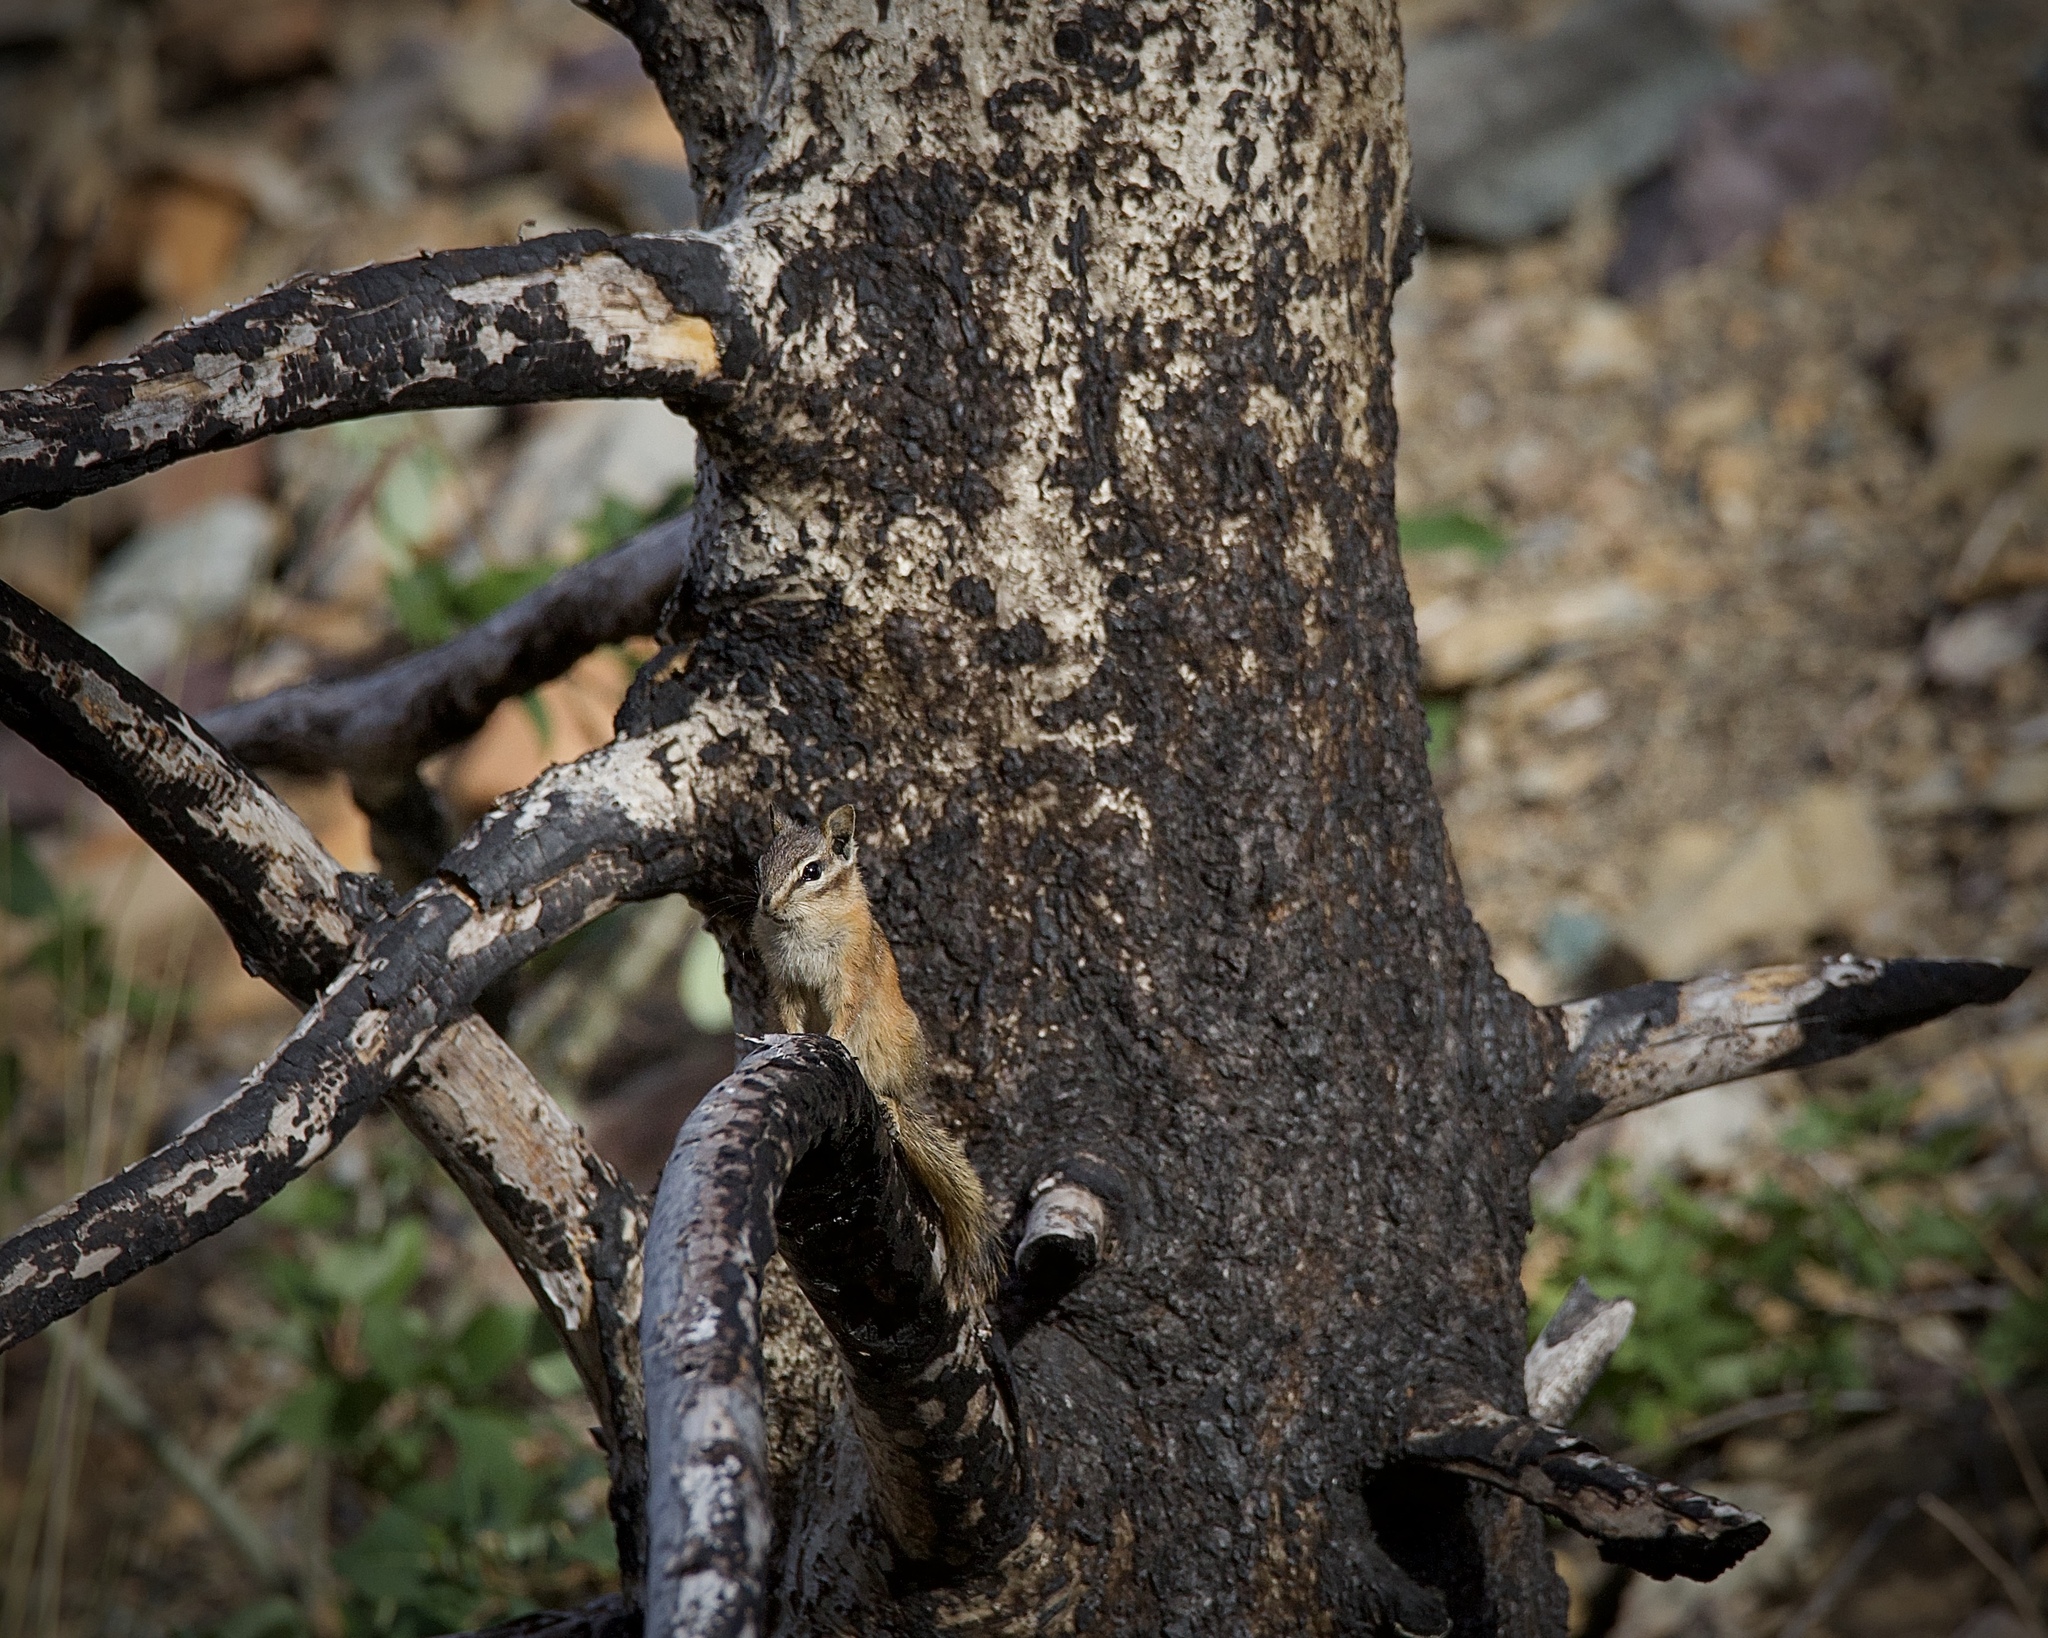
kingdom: Animalia
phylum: Chordata
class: Mammalia
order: Rodentia
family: Sciuridae
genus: Neotamias
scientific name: Neotamias
